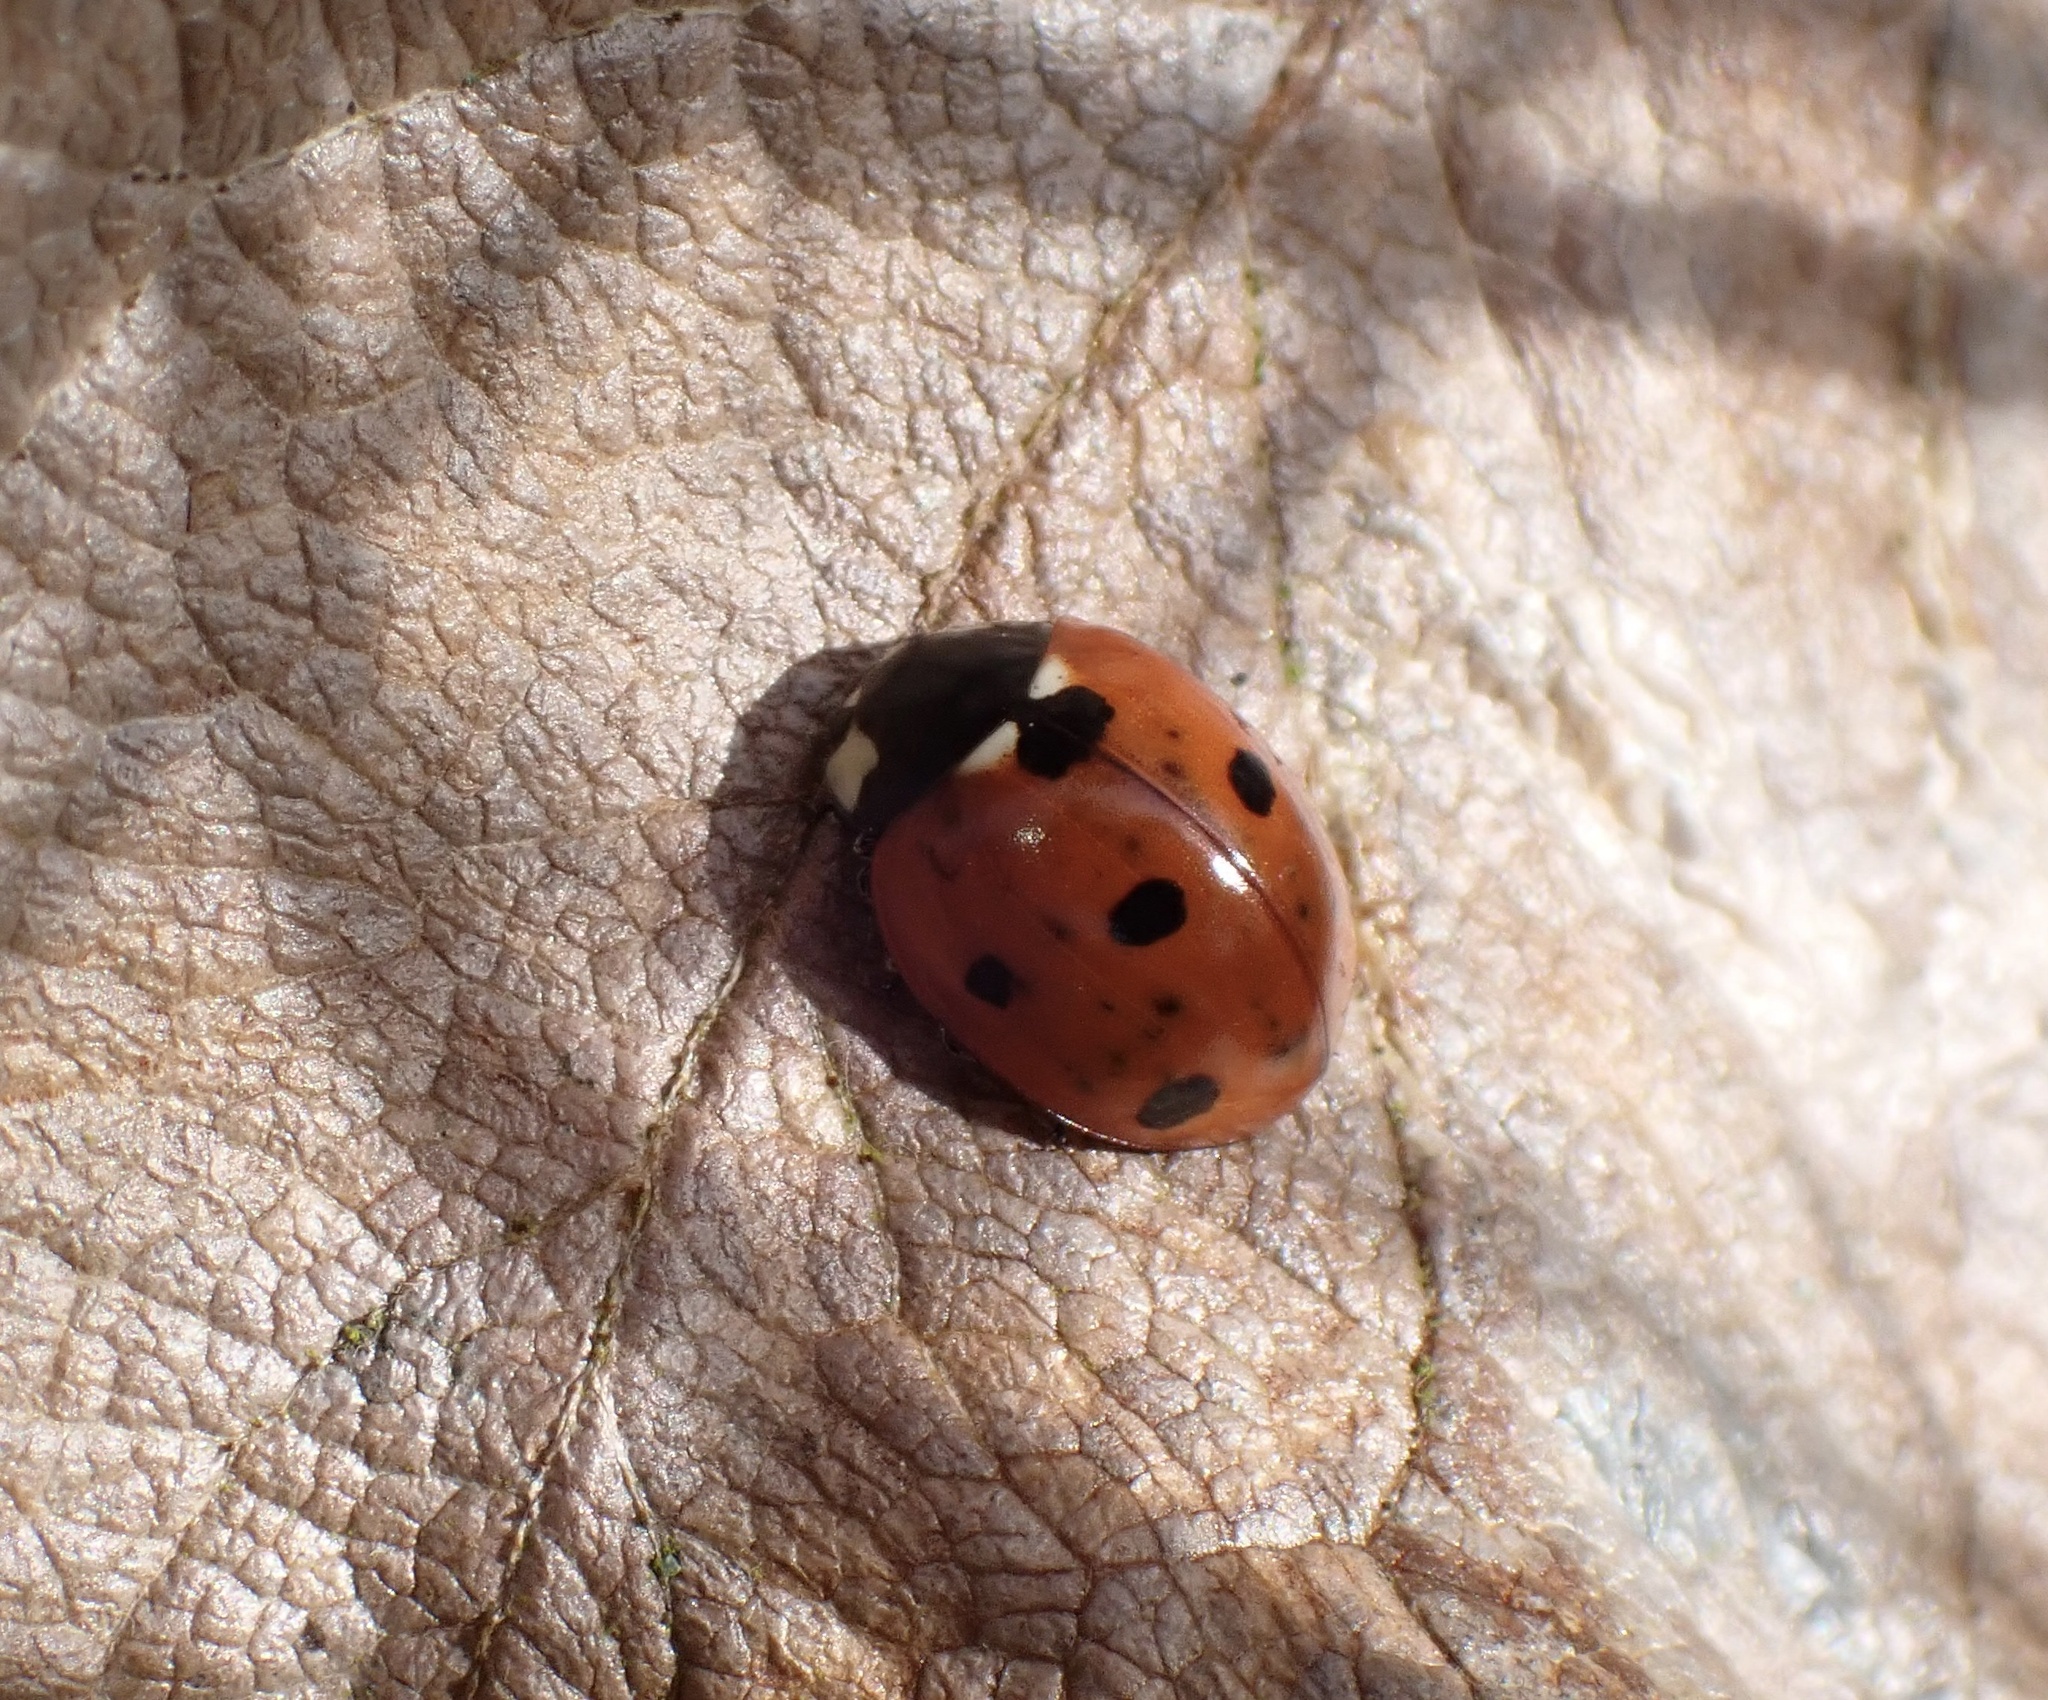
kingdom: Animalia
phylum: Arthropoda
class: Insecta
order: Coleoptera
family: Coccinellidae
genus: Coccinella
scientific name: Coccinella septempunctata
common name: Sevenspotted lady beetle
